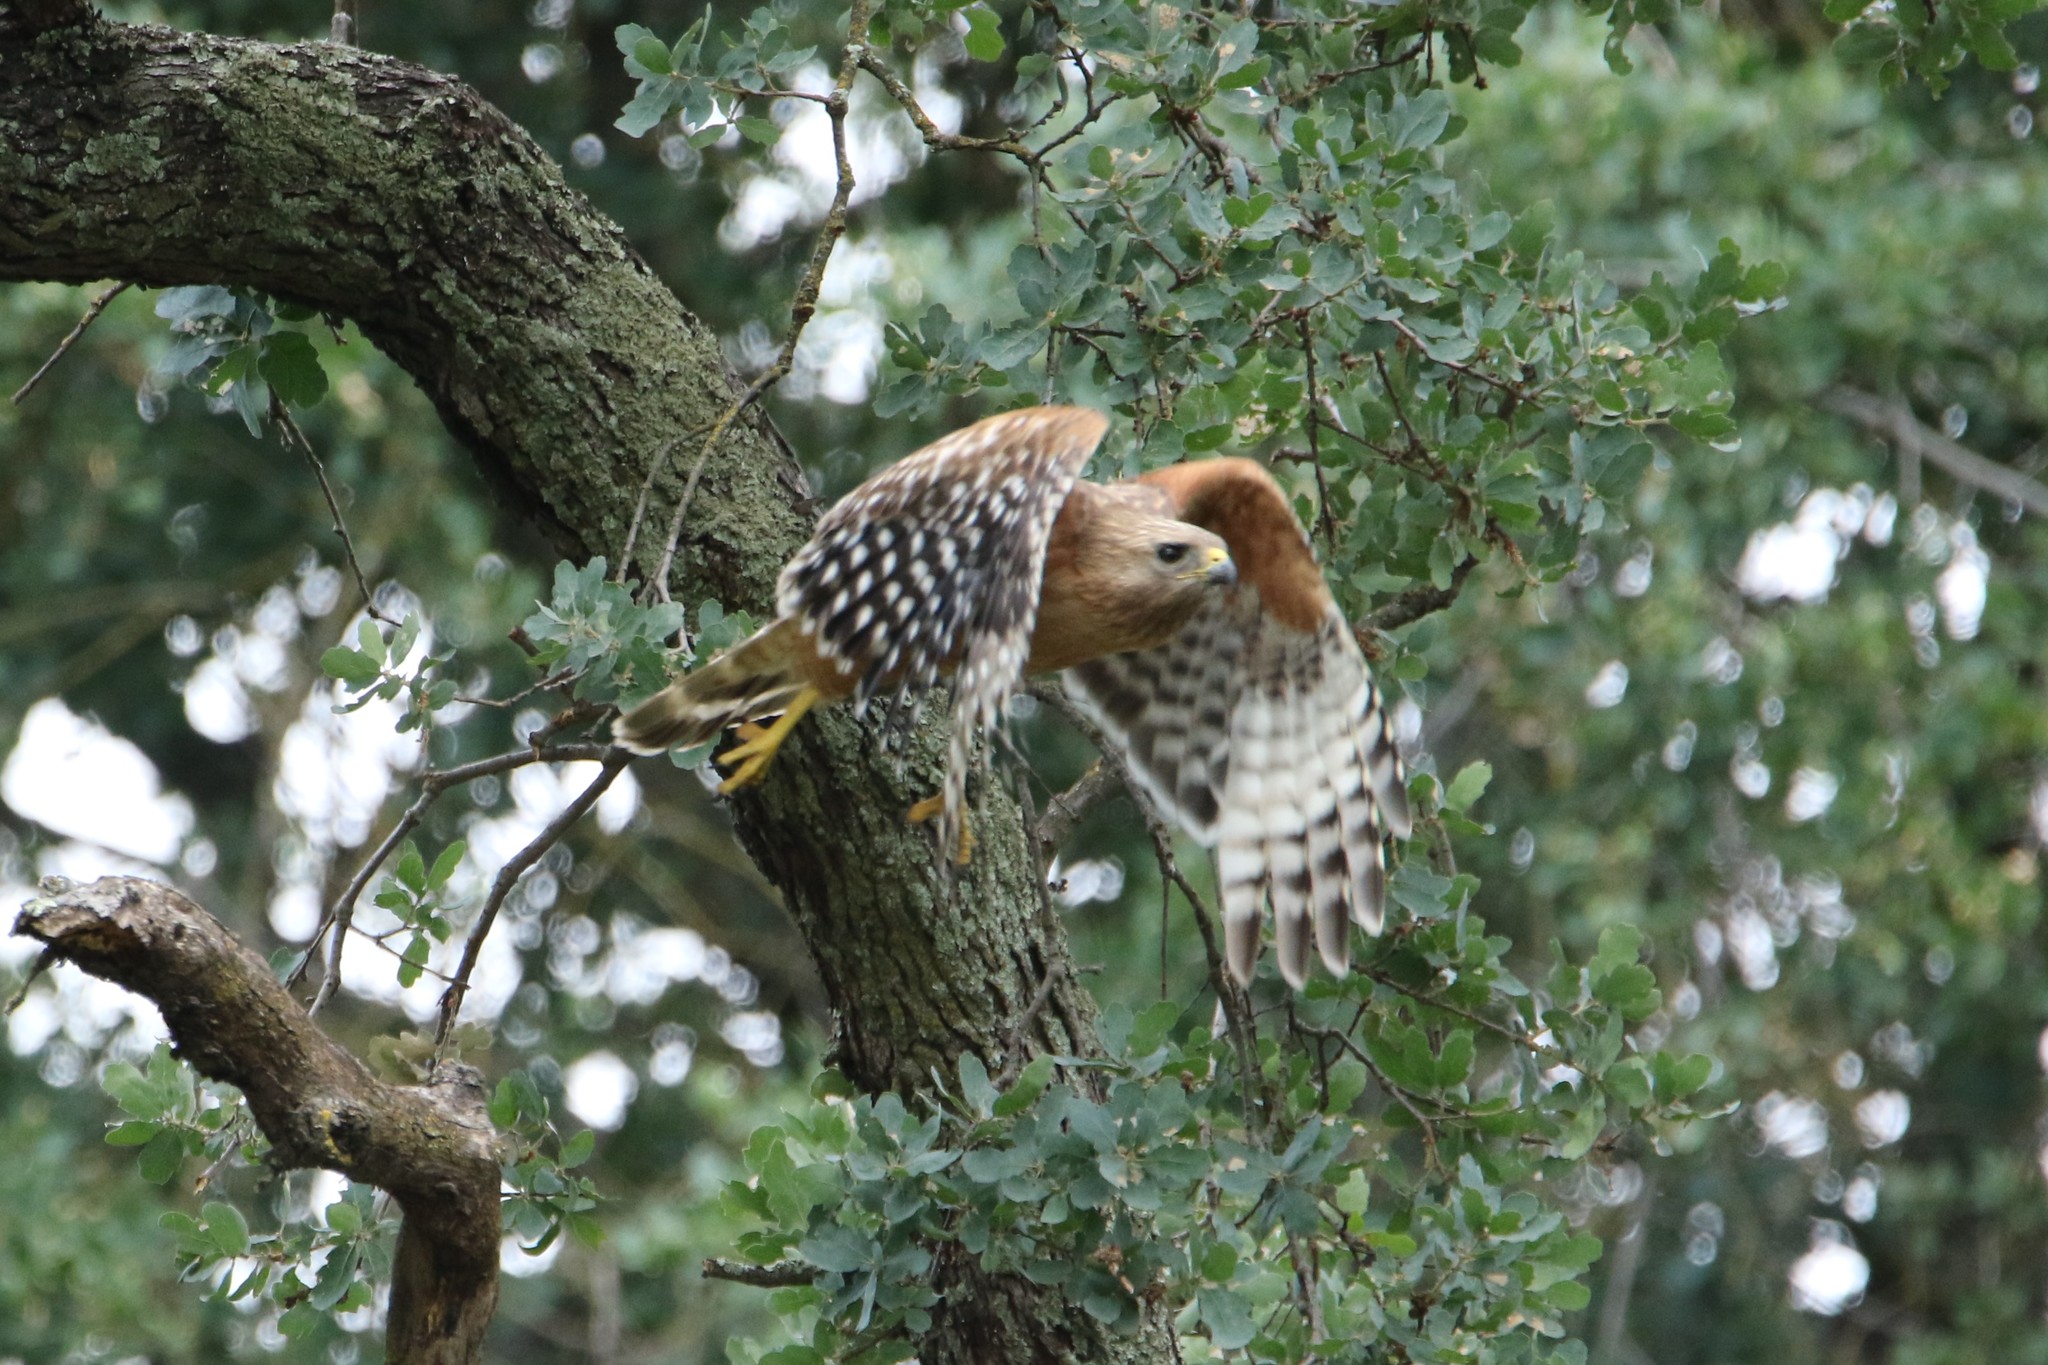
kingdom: Animalia
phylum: Chordata
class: Aves
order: Accipitriformes
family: Accipitridae
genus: Buteo
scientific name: Buteo lineatus
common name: Red-shouldered hawk
